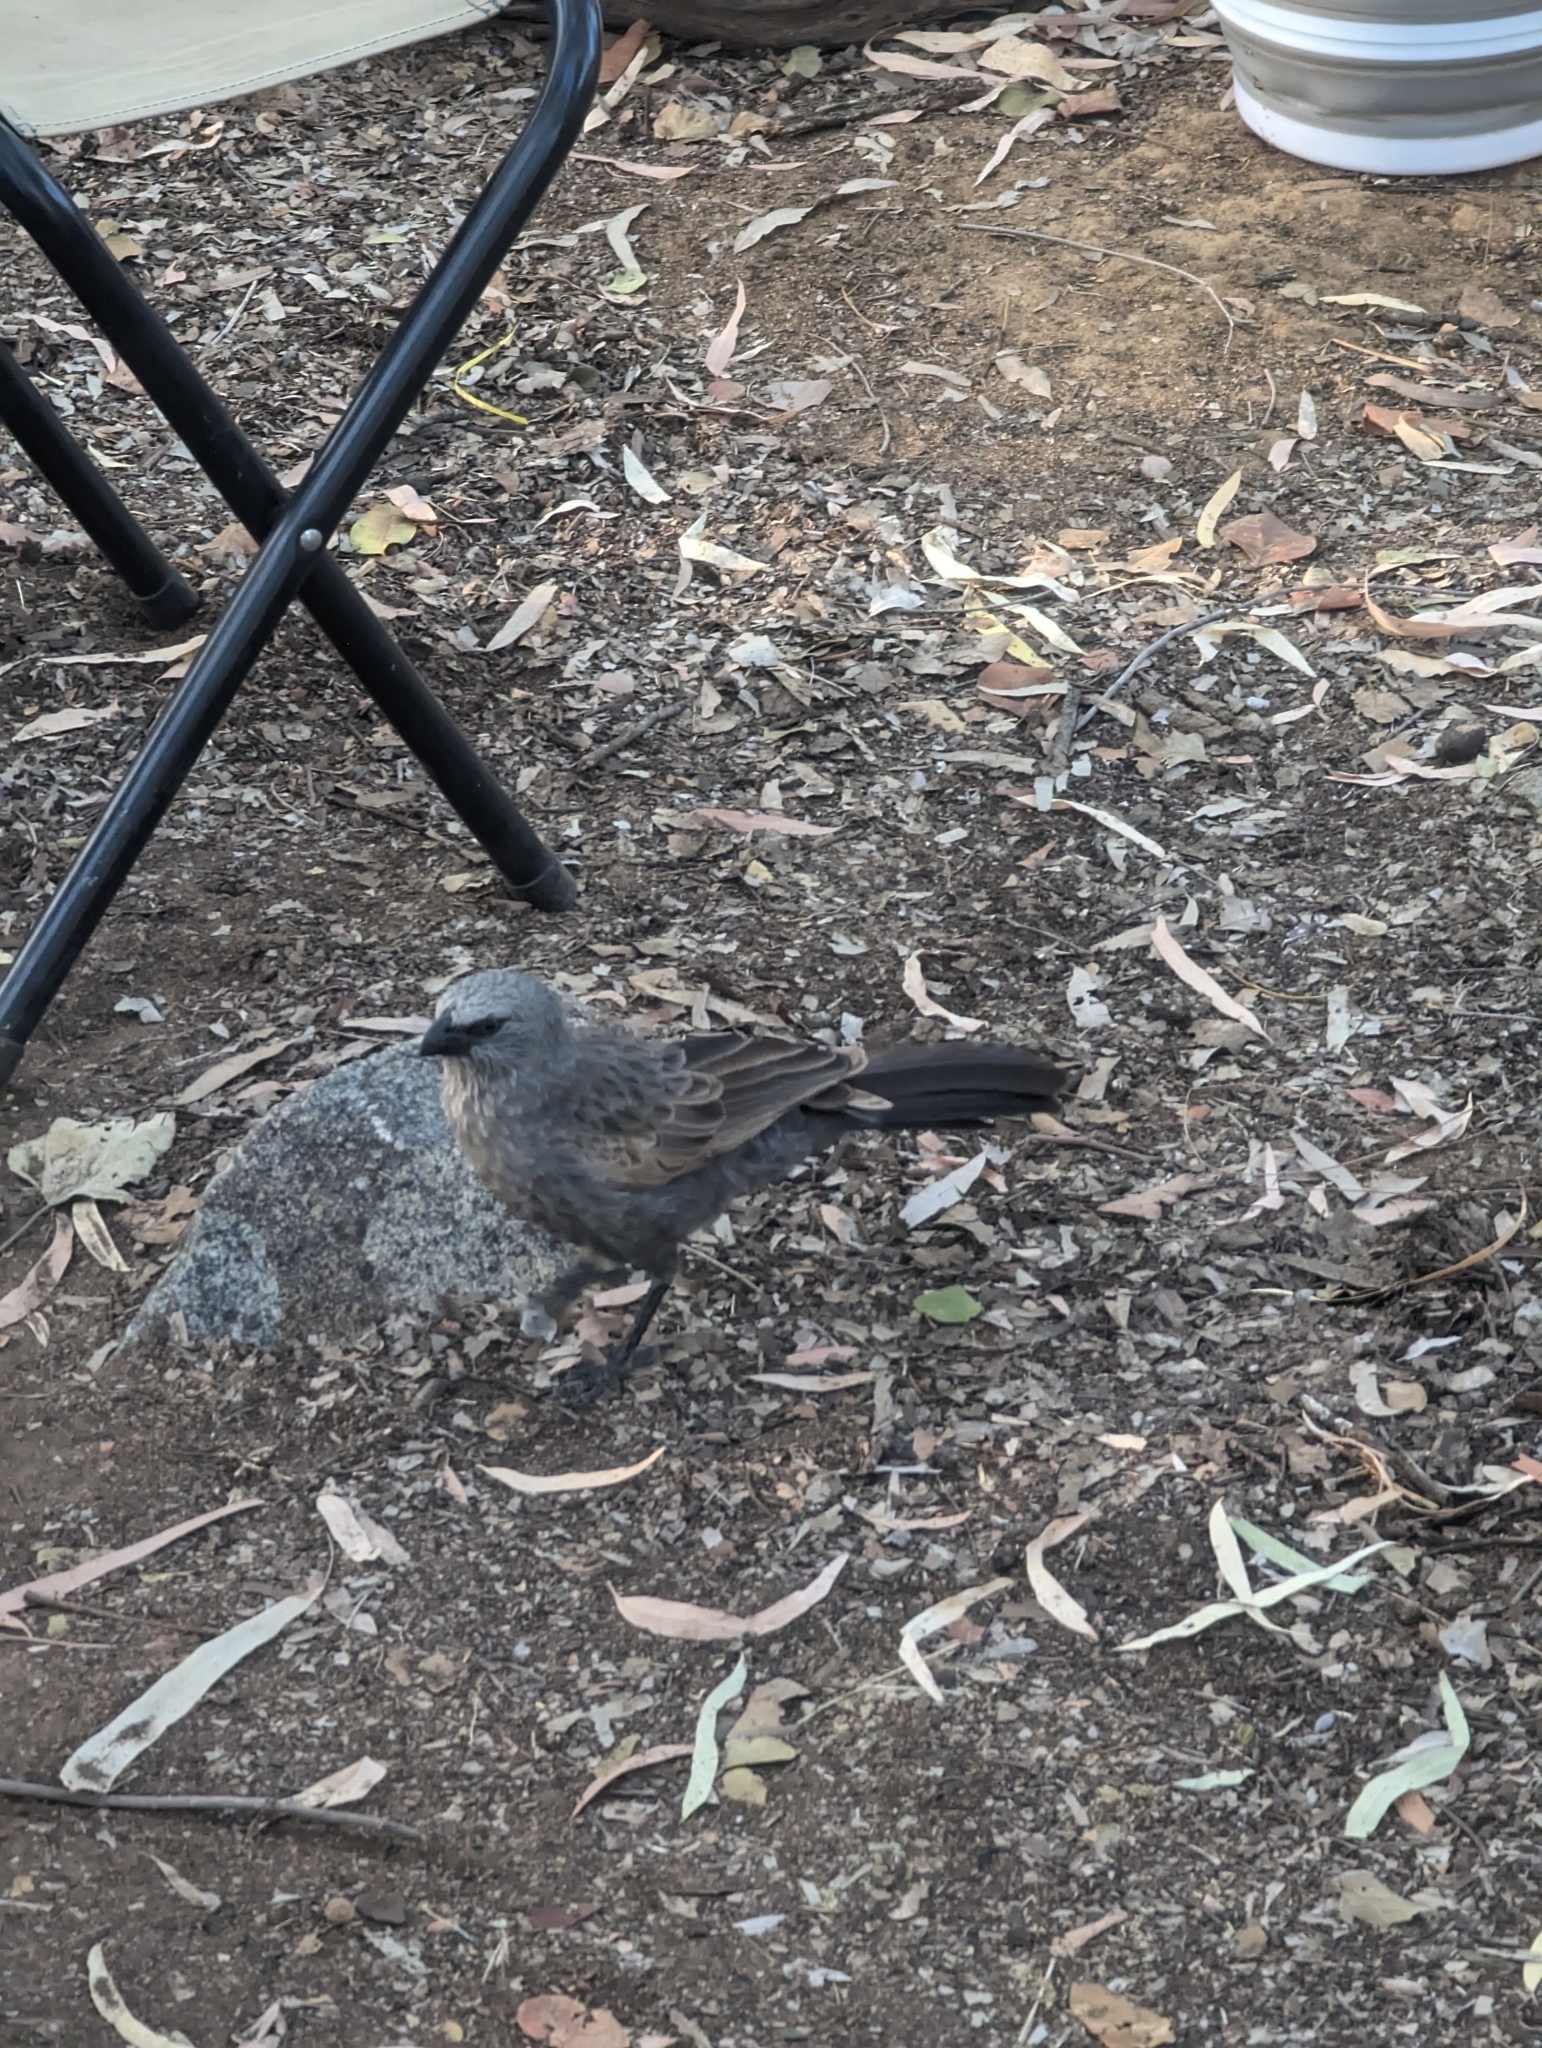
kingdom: Animalia
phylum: Chordata
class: Aves
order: Passeriformes
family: Corcoracidae
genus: Struthidea
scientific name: Struthidea cinerea
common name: Apostlebird
